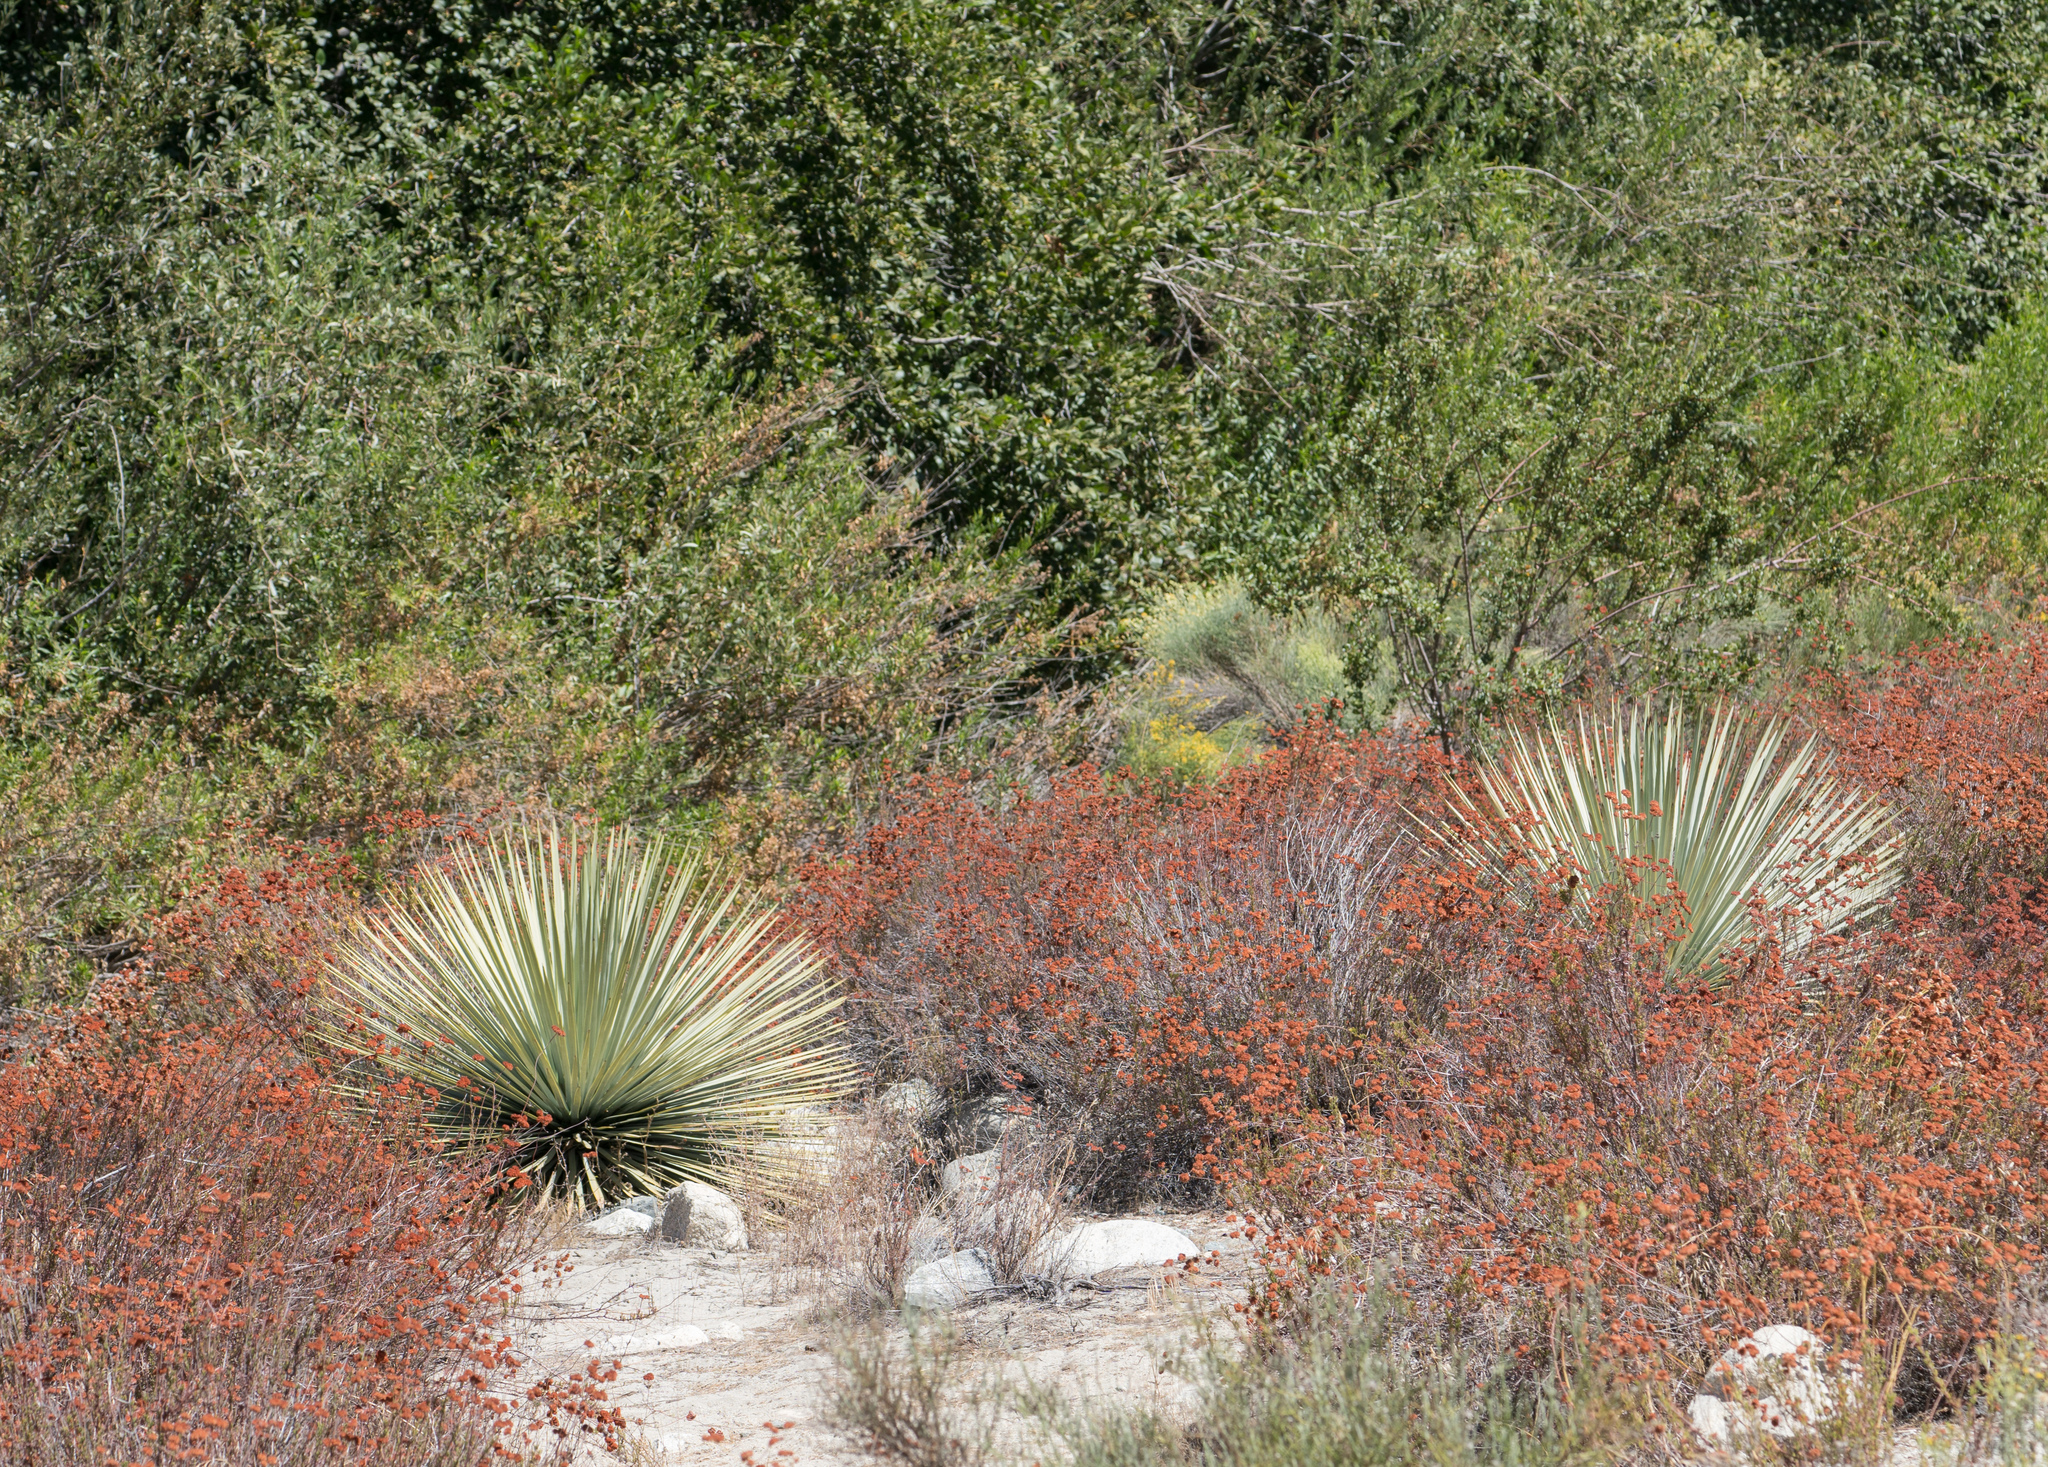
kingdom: Plantae
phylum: Tracheophyta
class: Liliopsida
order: Asparagales
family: Asparagaceae
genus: Hesperoyucca
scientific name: Hesperoyucca whipplei
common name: Our lord's-candle
